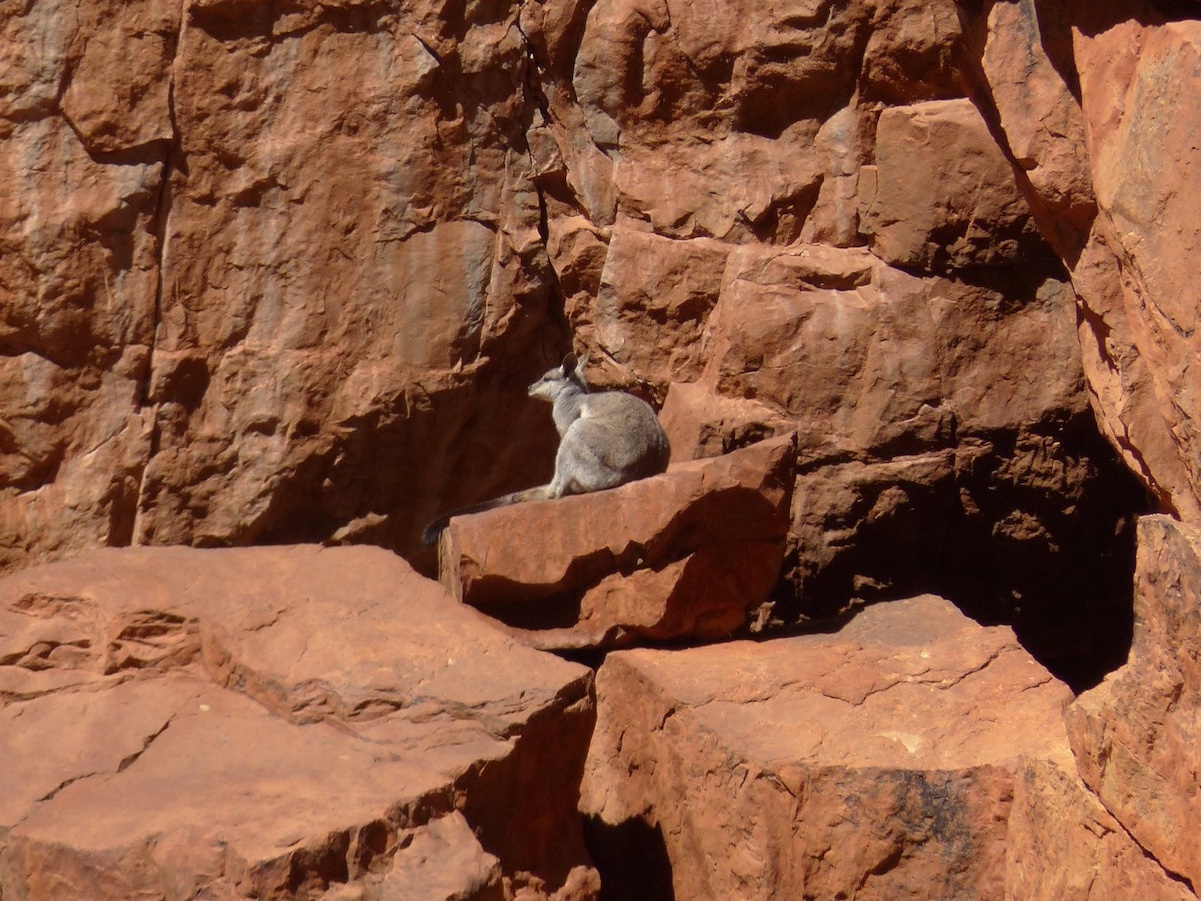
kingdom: Animalia
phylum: Chordata
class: Mammalia
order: Diprotodontia
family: Macropodidae
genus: Petrogale
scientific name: Petrogale lateralis
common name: Black-flanked rock-wallaby
